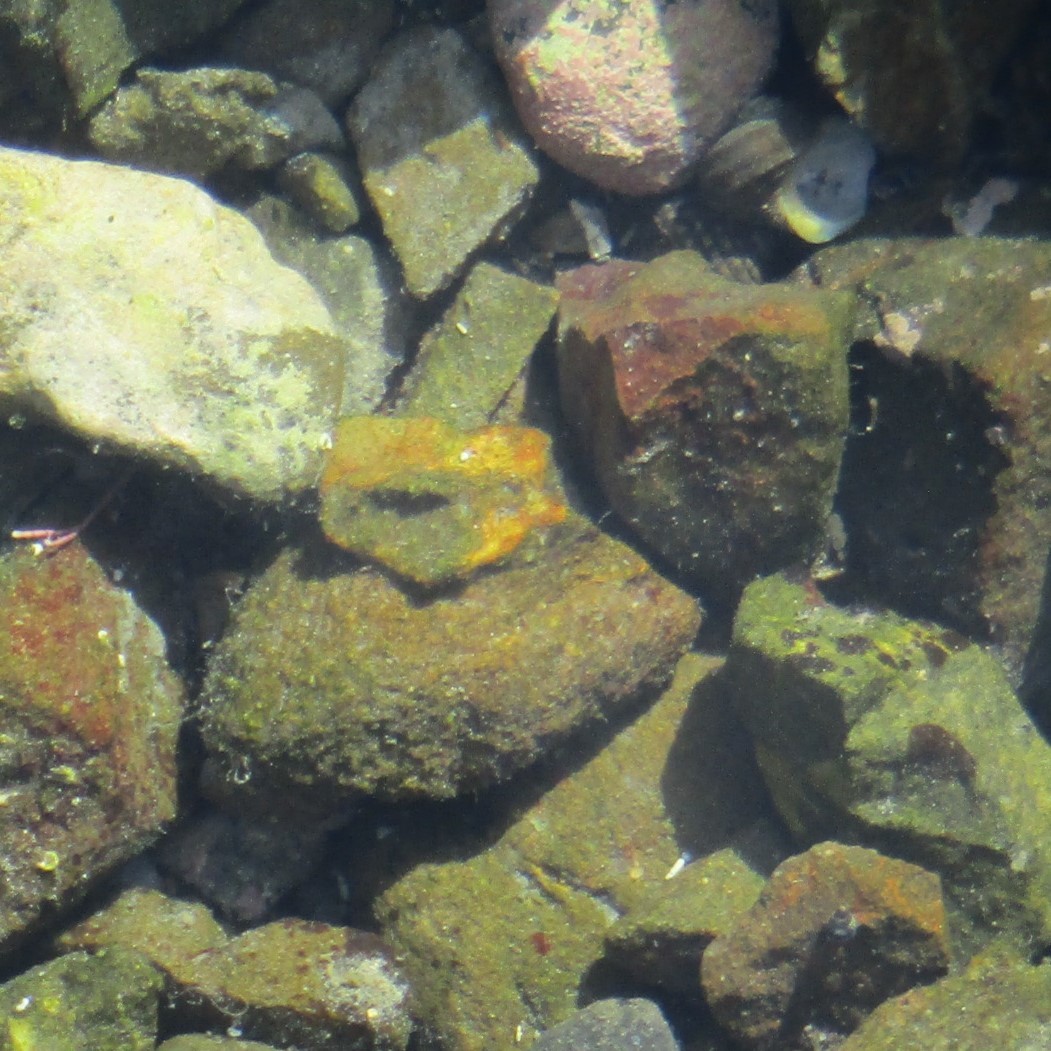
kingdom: Animalia
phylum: Mollusca
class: Gastropoda
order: Trochida
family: Turbinidae
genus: Lunella
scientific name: Lunella smaragda
